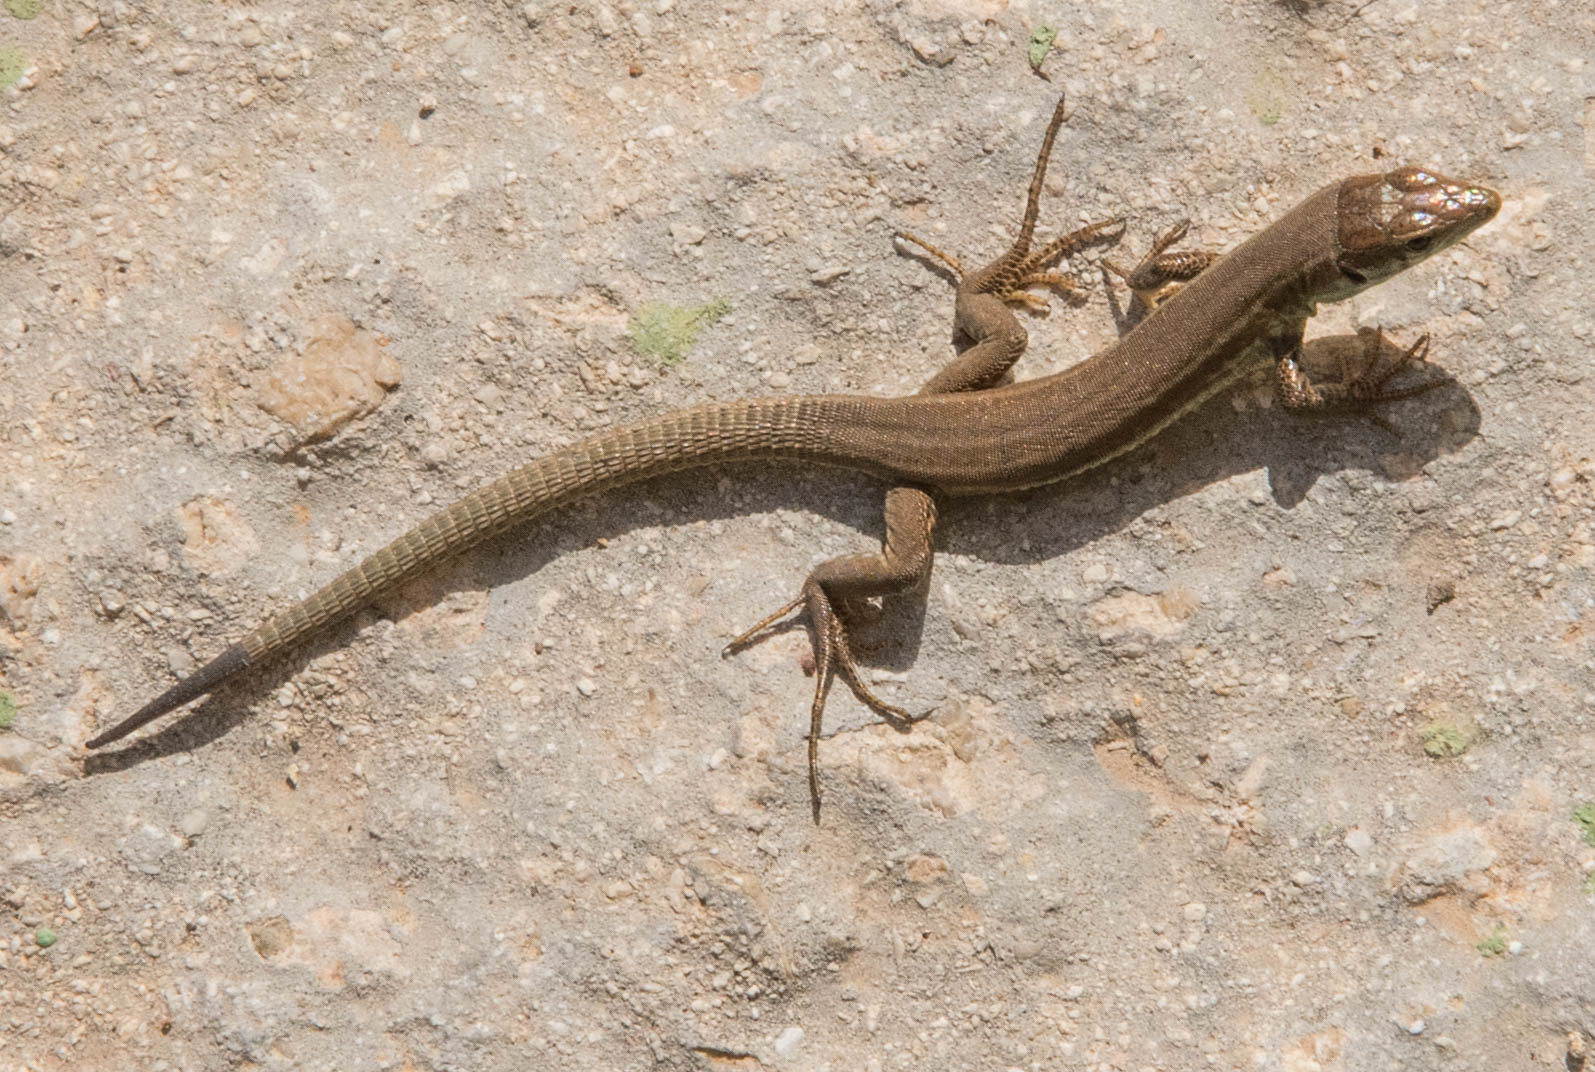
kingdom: Animalia
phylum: Chordata
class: Squamata
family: Lacertidae
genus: Podarcis
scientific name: Podarcis filfolensis
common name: Maltese wall lizard
